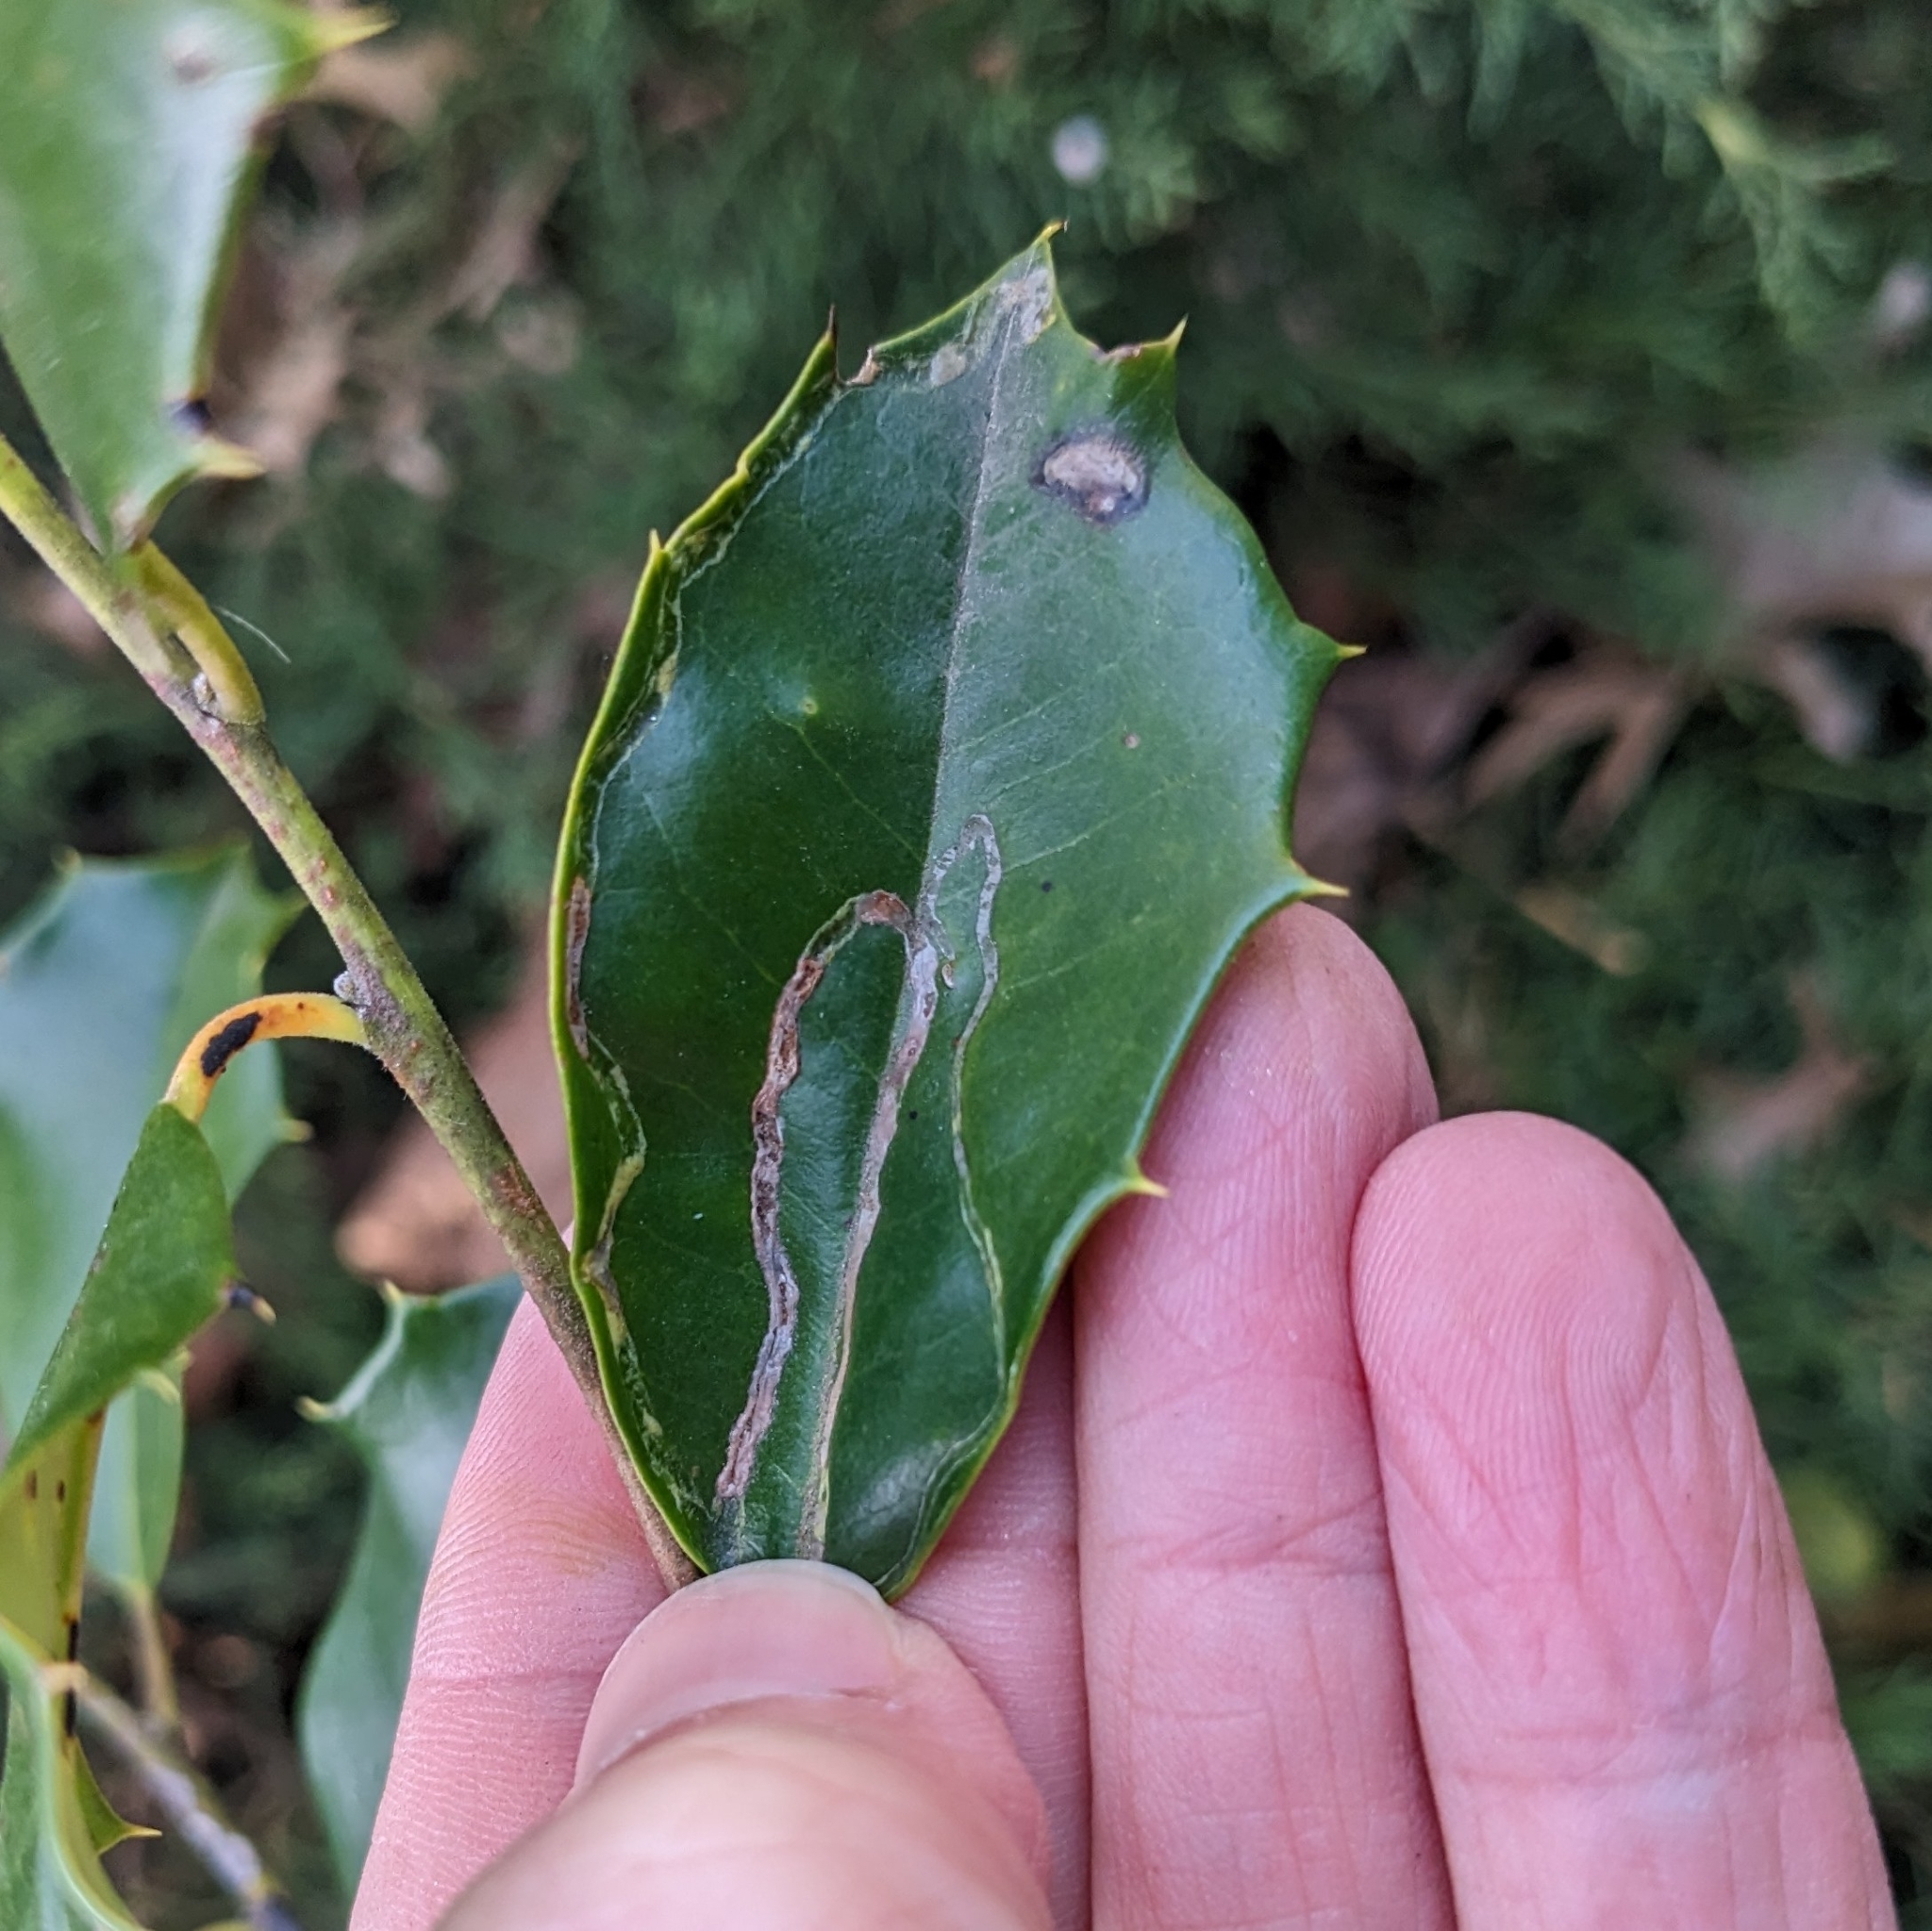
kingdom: Animalia
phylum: Arthropoda
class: Insecta
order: Diptera
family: Agromyzidae
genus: Phytomyza
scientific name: Phytomyza opacae
